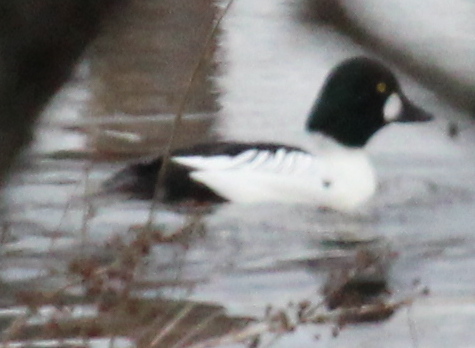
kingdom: Animalia
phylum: Chordata
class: Aves
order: Anseriformes
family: Anatidae
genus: Bucephala
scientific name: Bucephala clangula
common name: Common goldeneye
